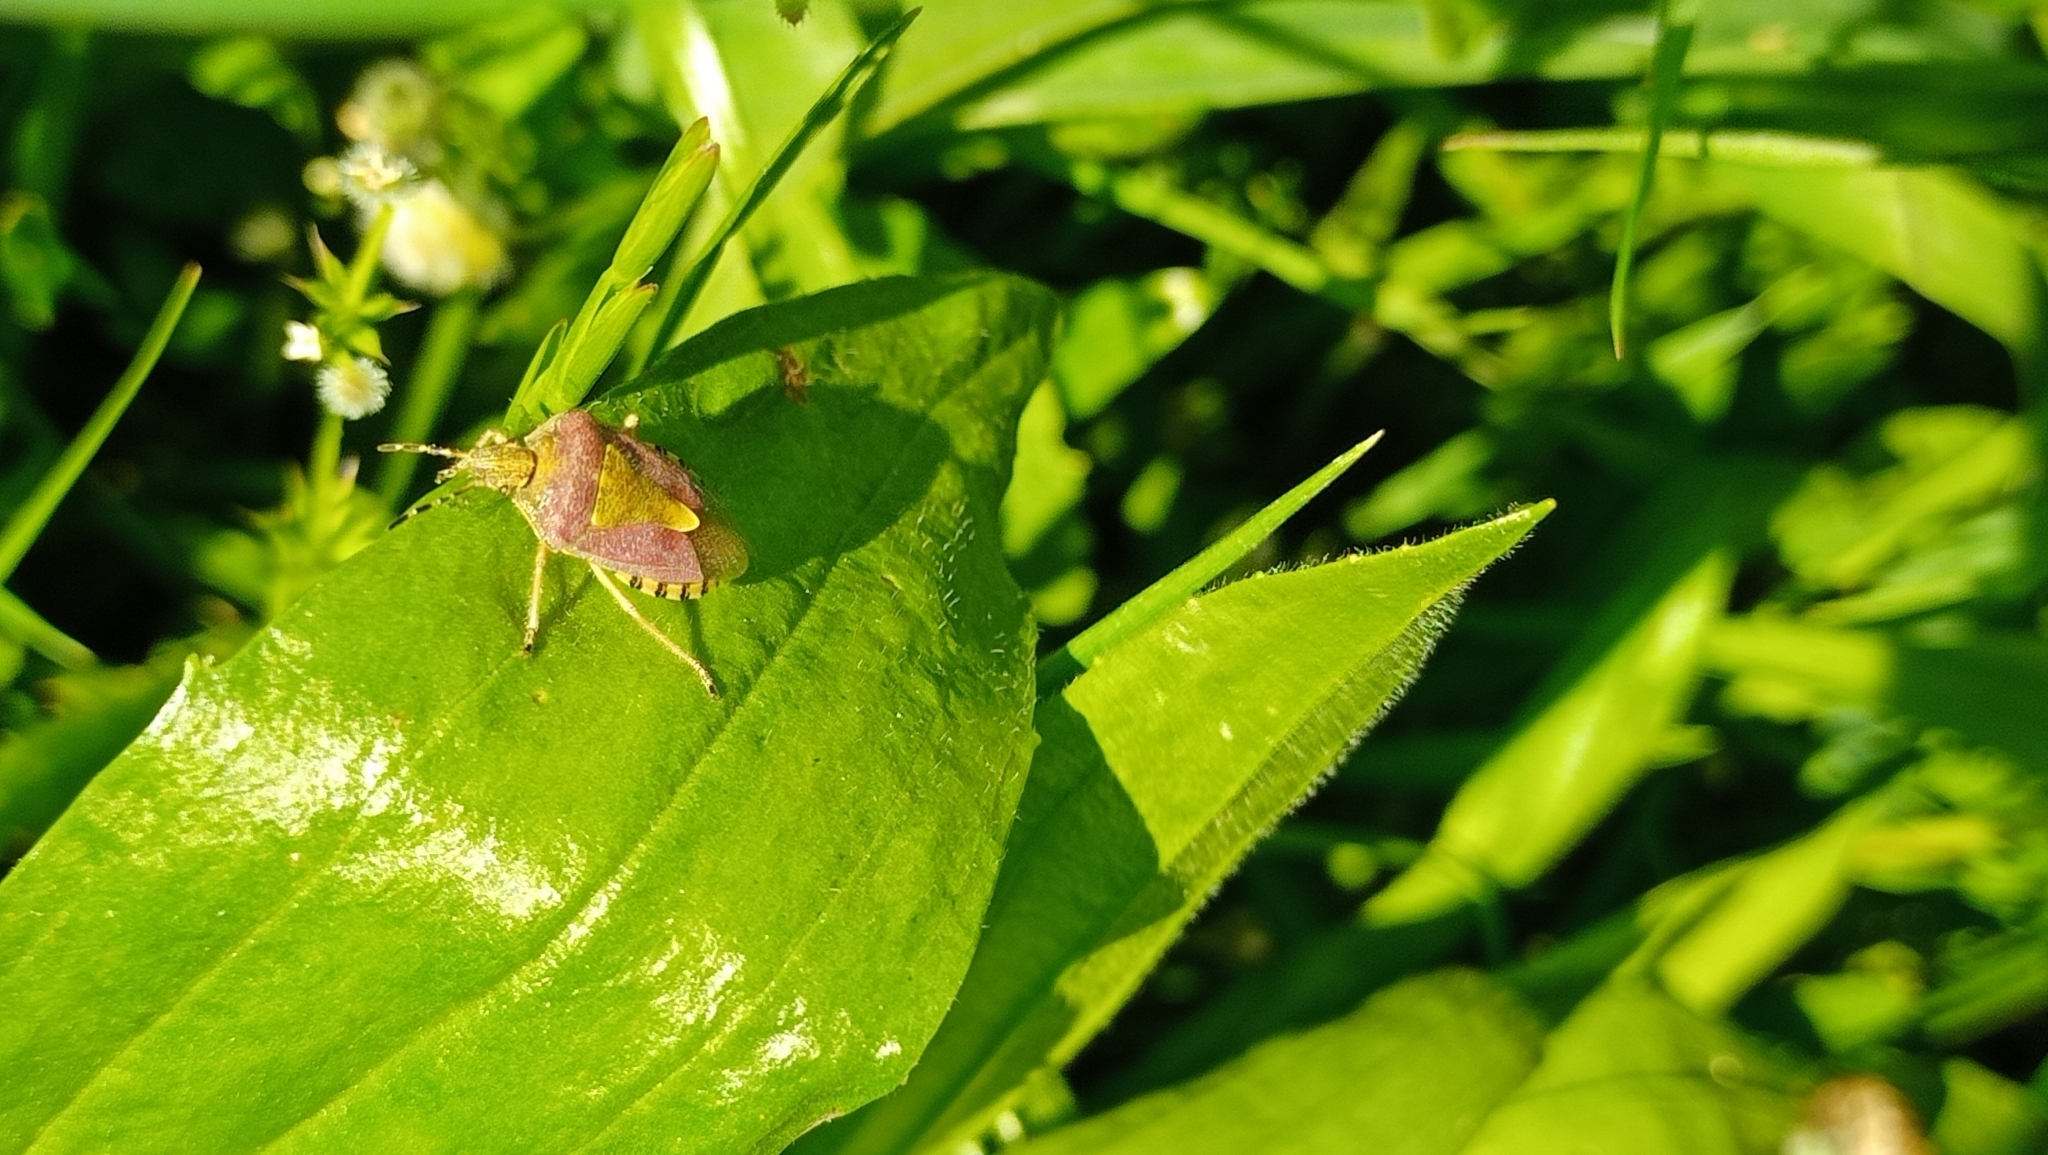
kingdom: Animalia
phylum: Arthropoda
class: Insecta
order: Hemiptera
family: Pentatomidae
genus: Dolycoris
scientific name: Dolycoris baccarum
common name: Sloe bug
